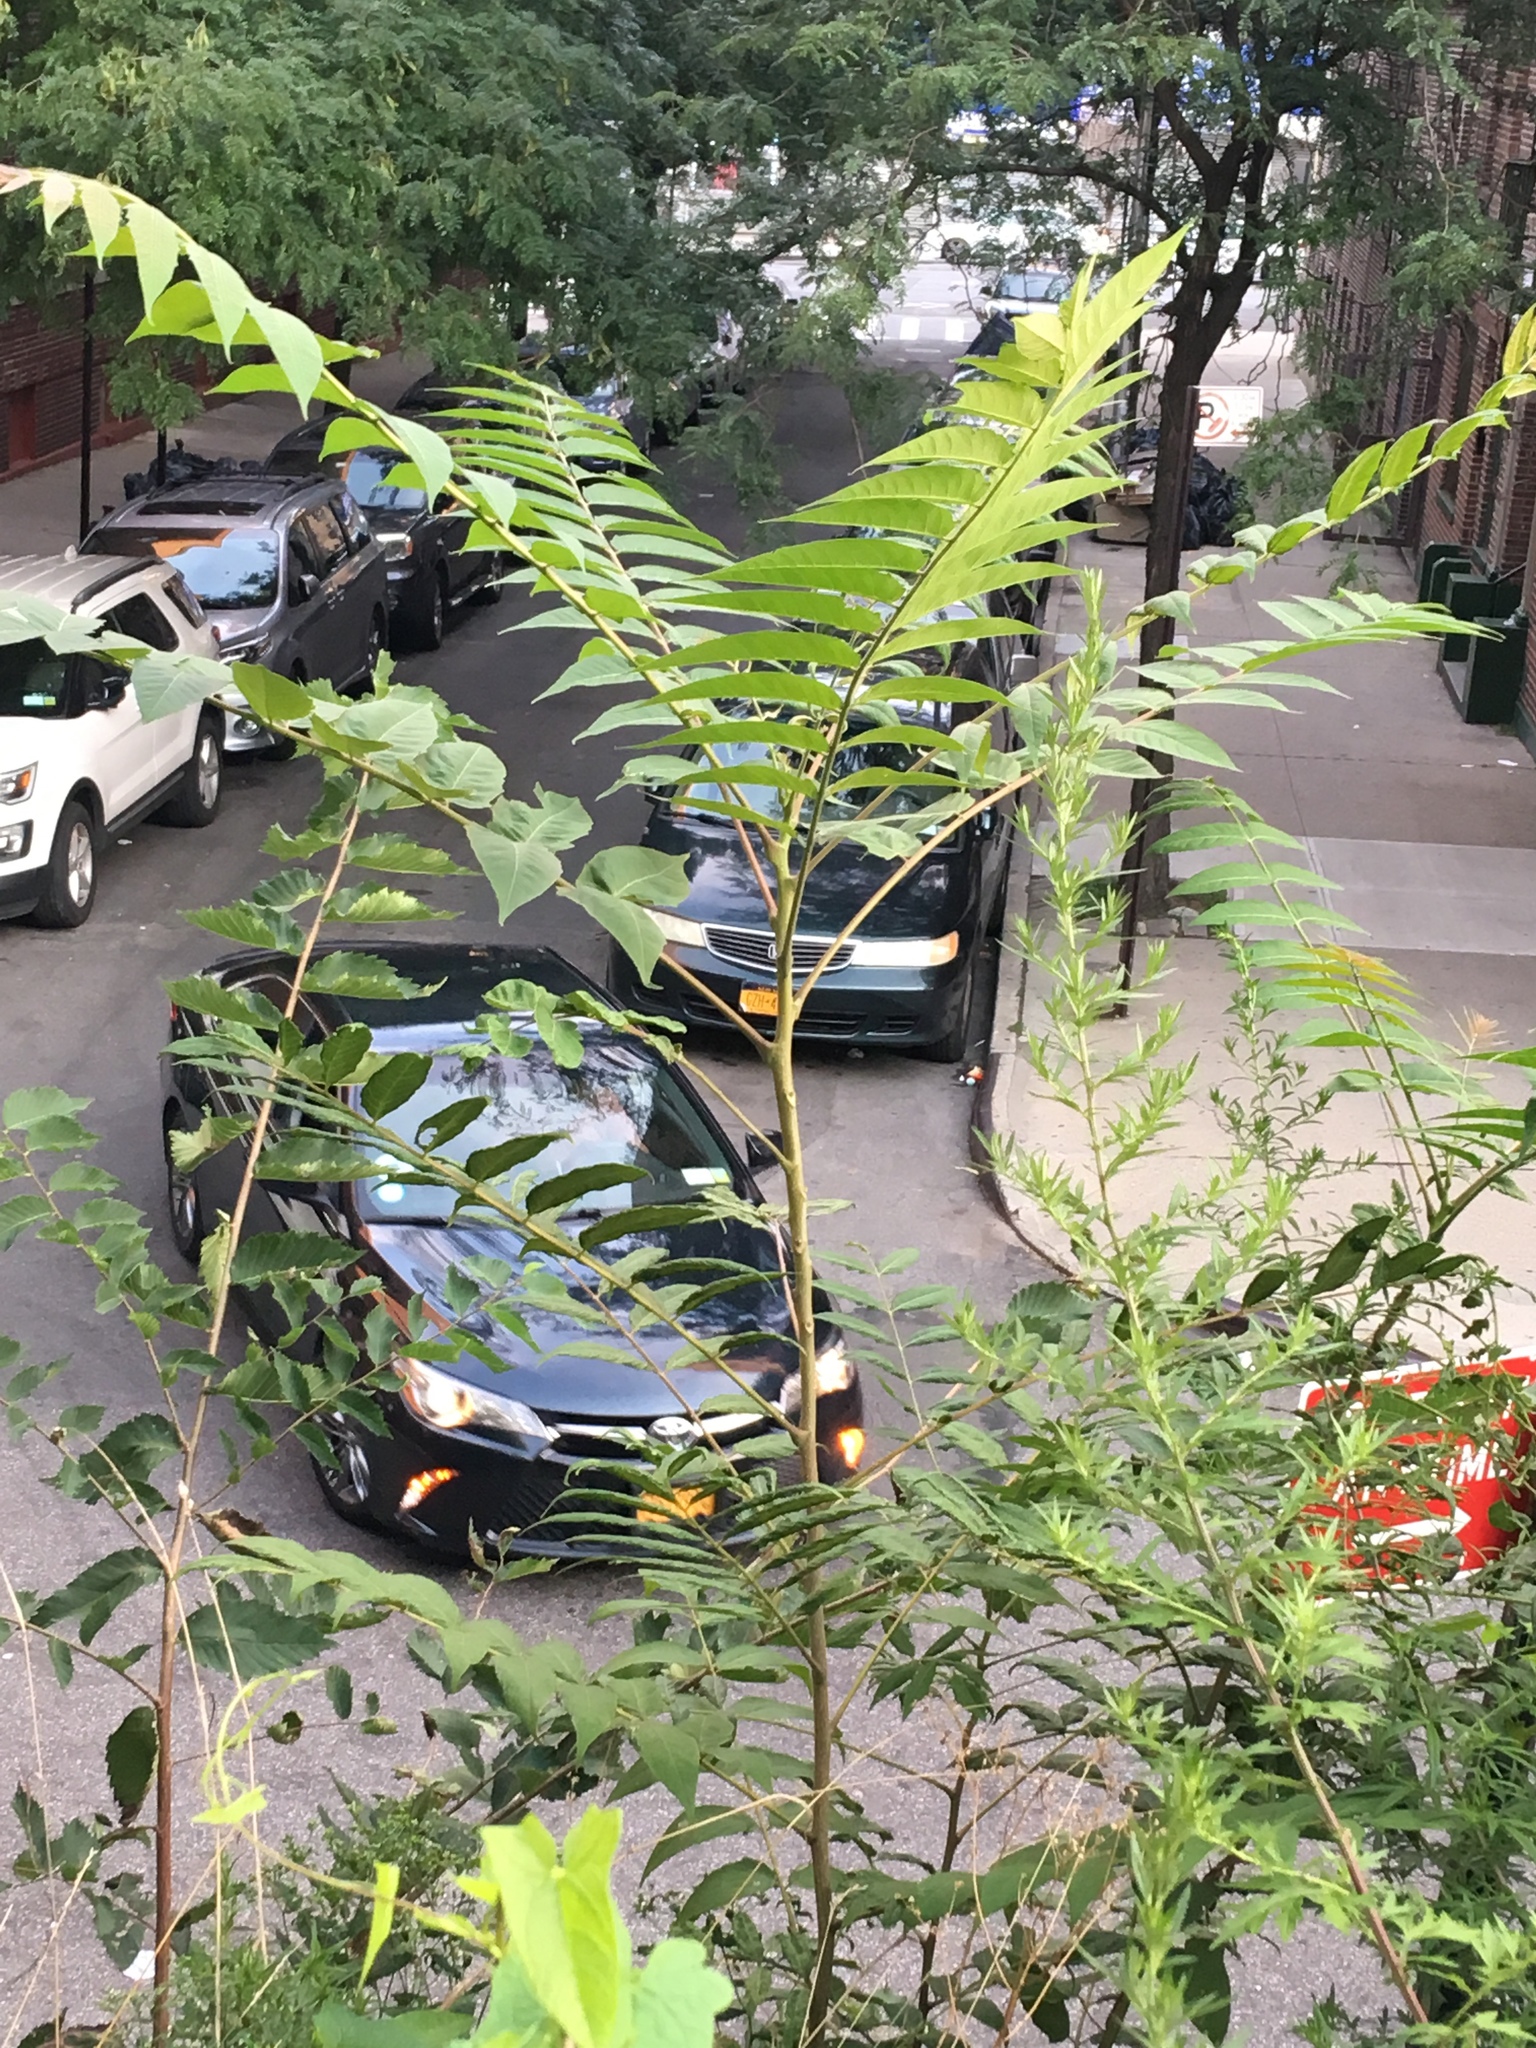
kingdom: Plantae
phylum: Tracheophyta
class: Magnoliopsida
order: Sapindales
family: Simaroubaceae
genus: Ailanthus
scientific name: Ailanthus altissima
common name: Tree-of-heaven
